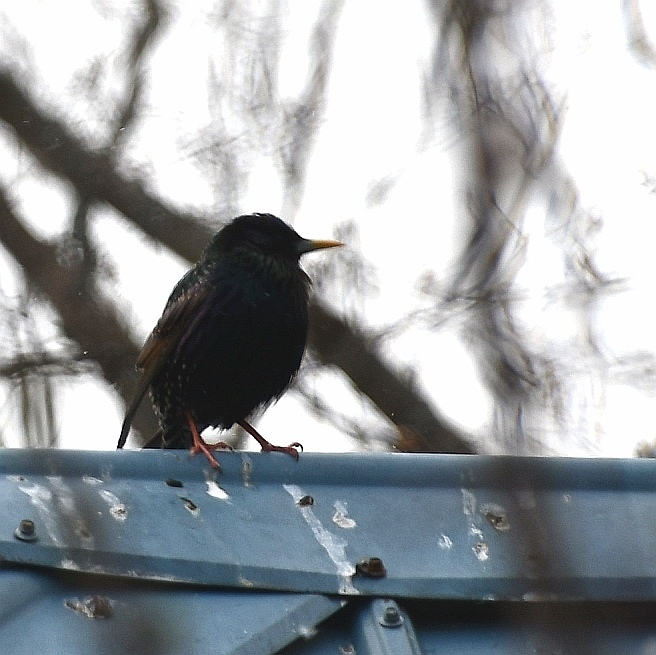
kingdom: Animalia
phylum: Chordata
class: Aves
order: Passeriformes
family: Sturnidae
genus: Sturnus
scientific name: Sturnus vulgaris
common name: Common starling
